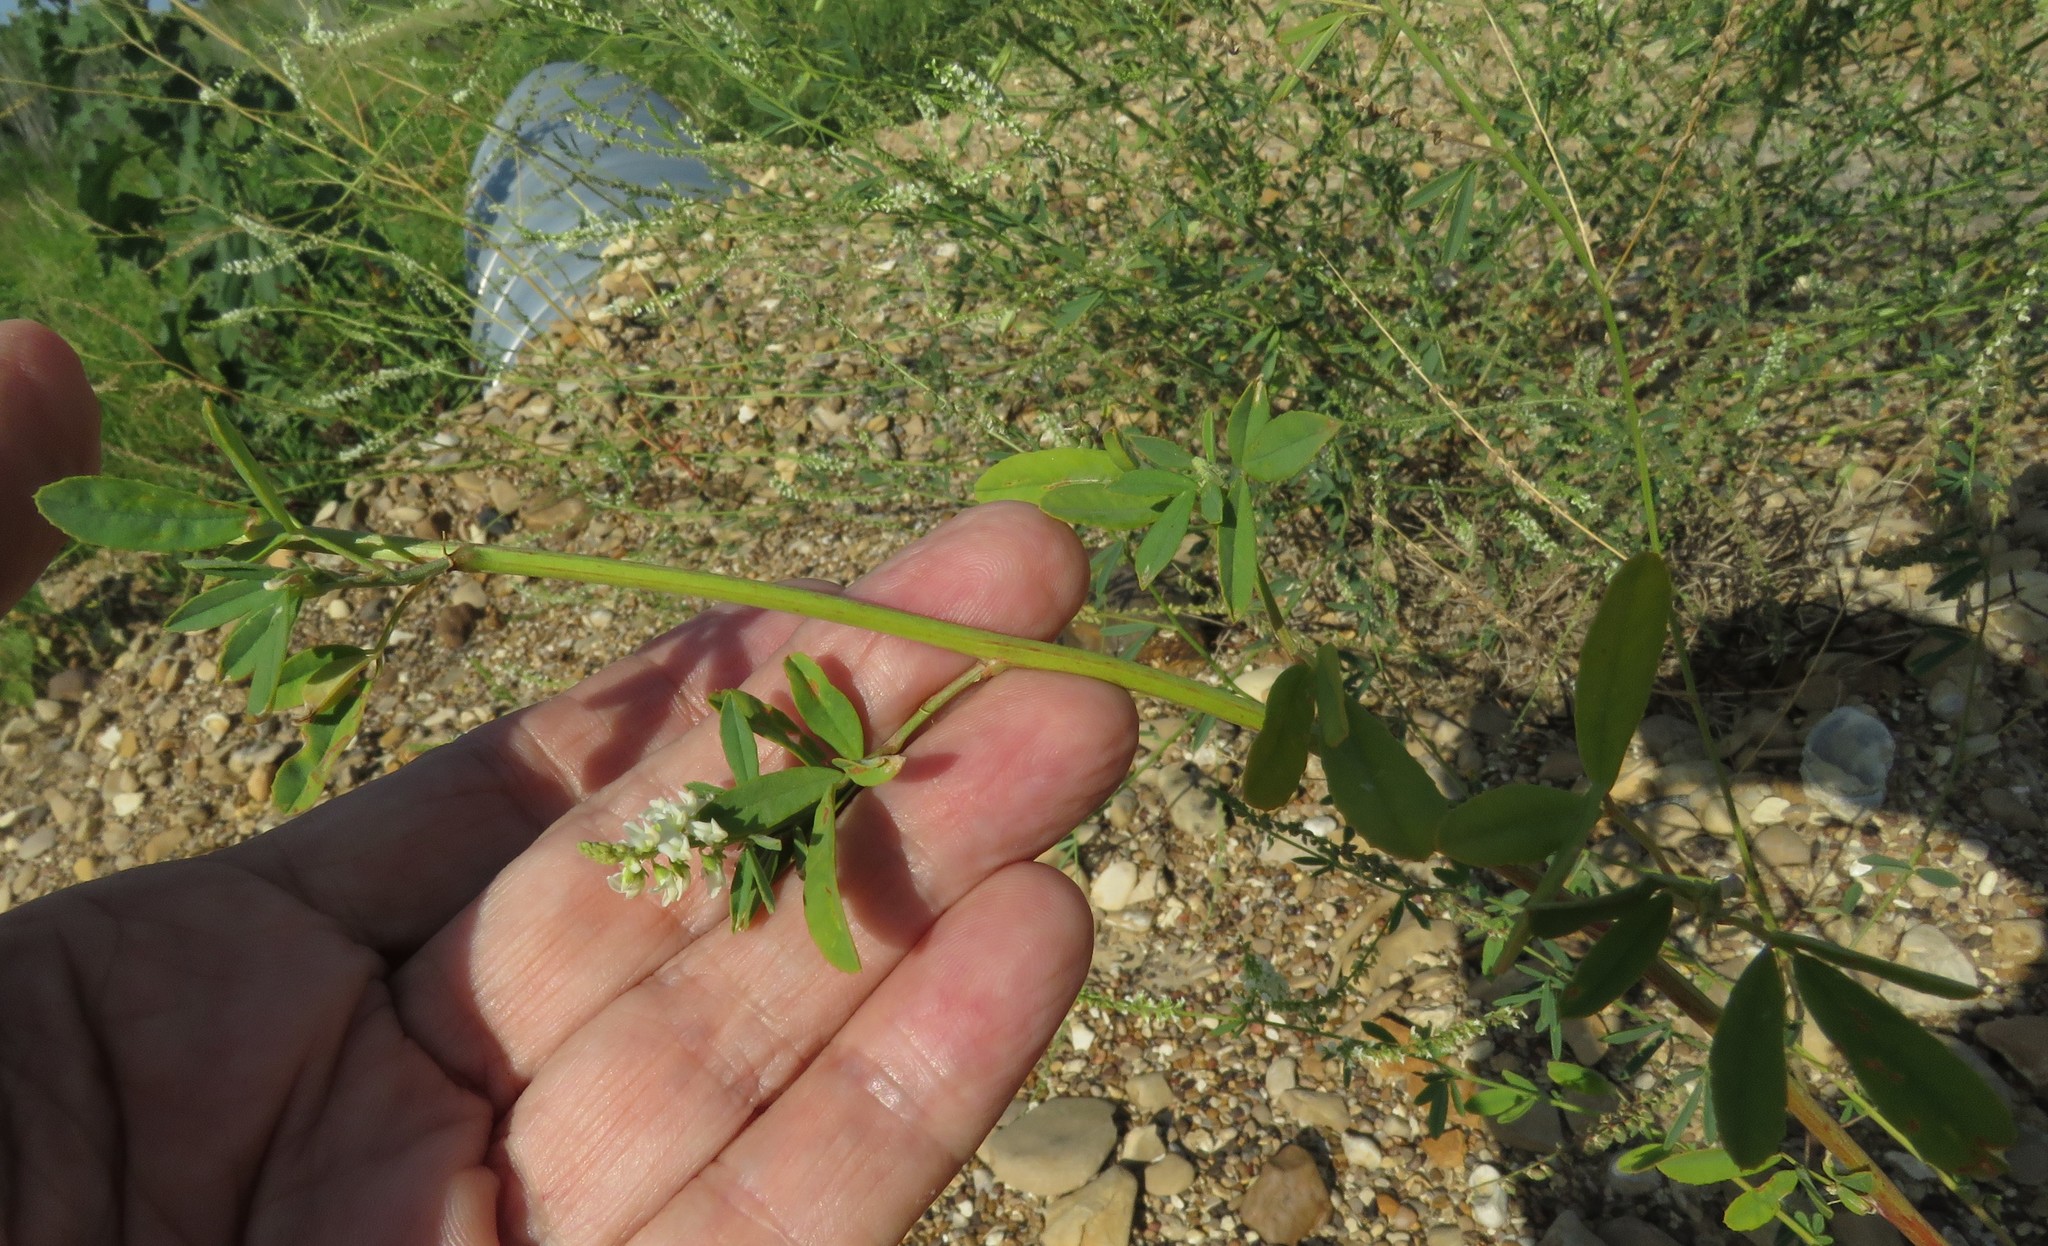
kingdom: Plantae
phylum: Tracheophyta
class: Magnoliopsida
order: Fabales
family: Fabaceae
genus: Melilotus
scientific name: Melilotus albus
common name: White melilot
